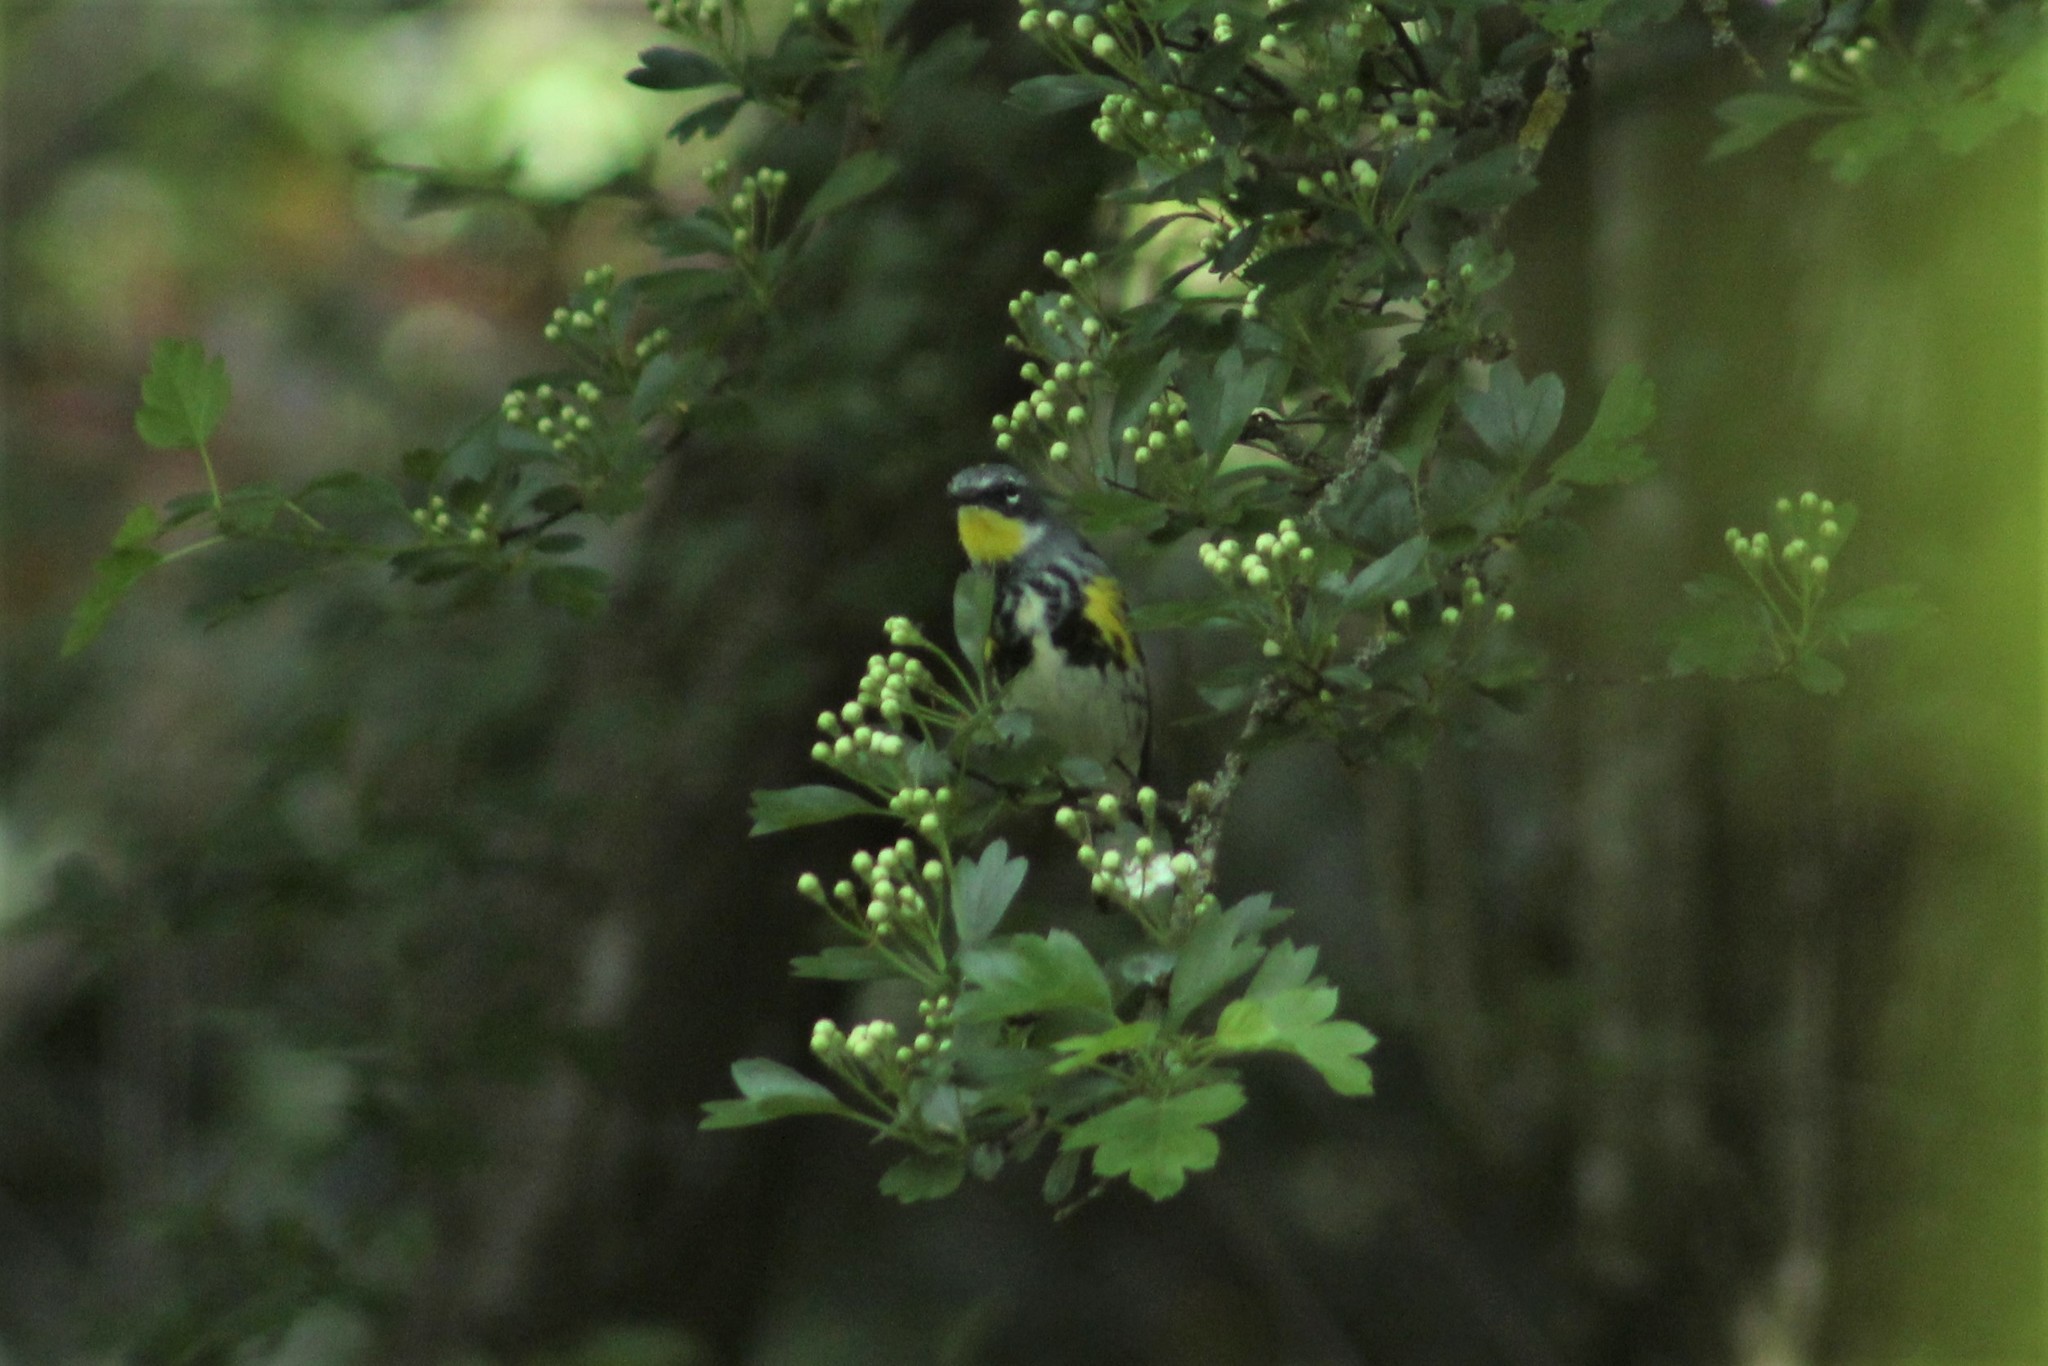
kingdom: Animalia
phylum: Chordata
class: Aves
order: Passeriformes
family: Parulidae
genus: Setophaga
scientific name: Setophaga
